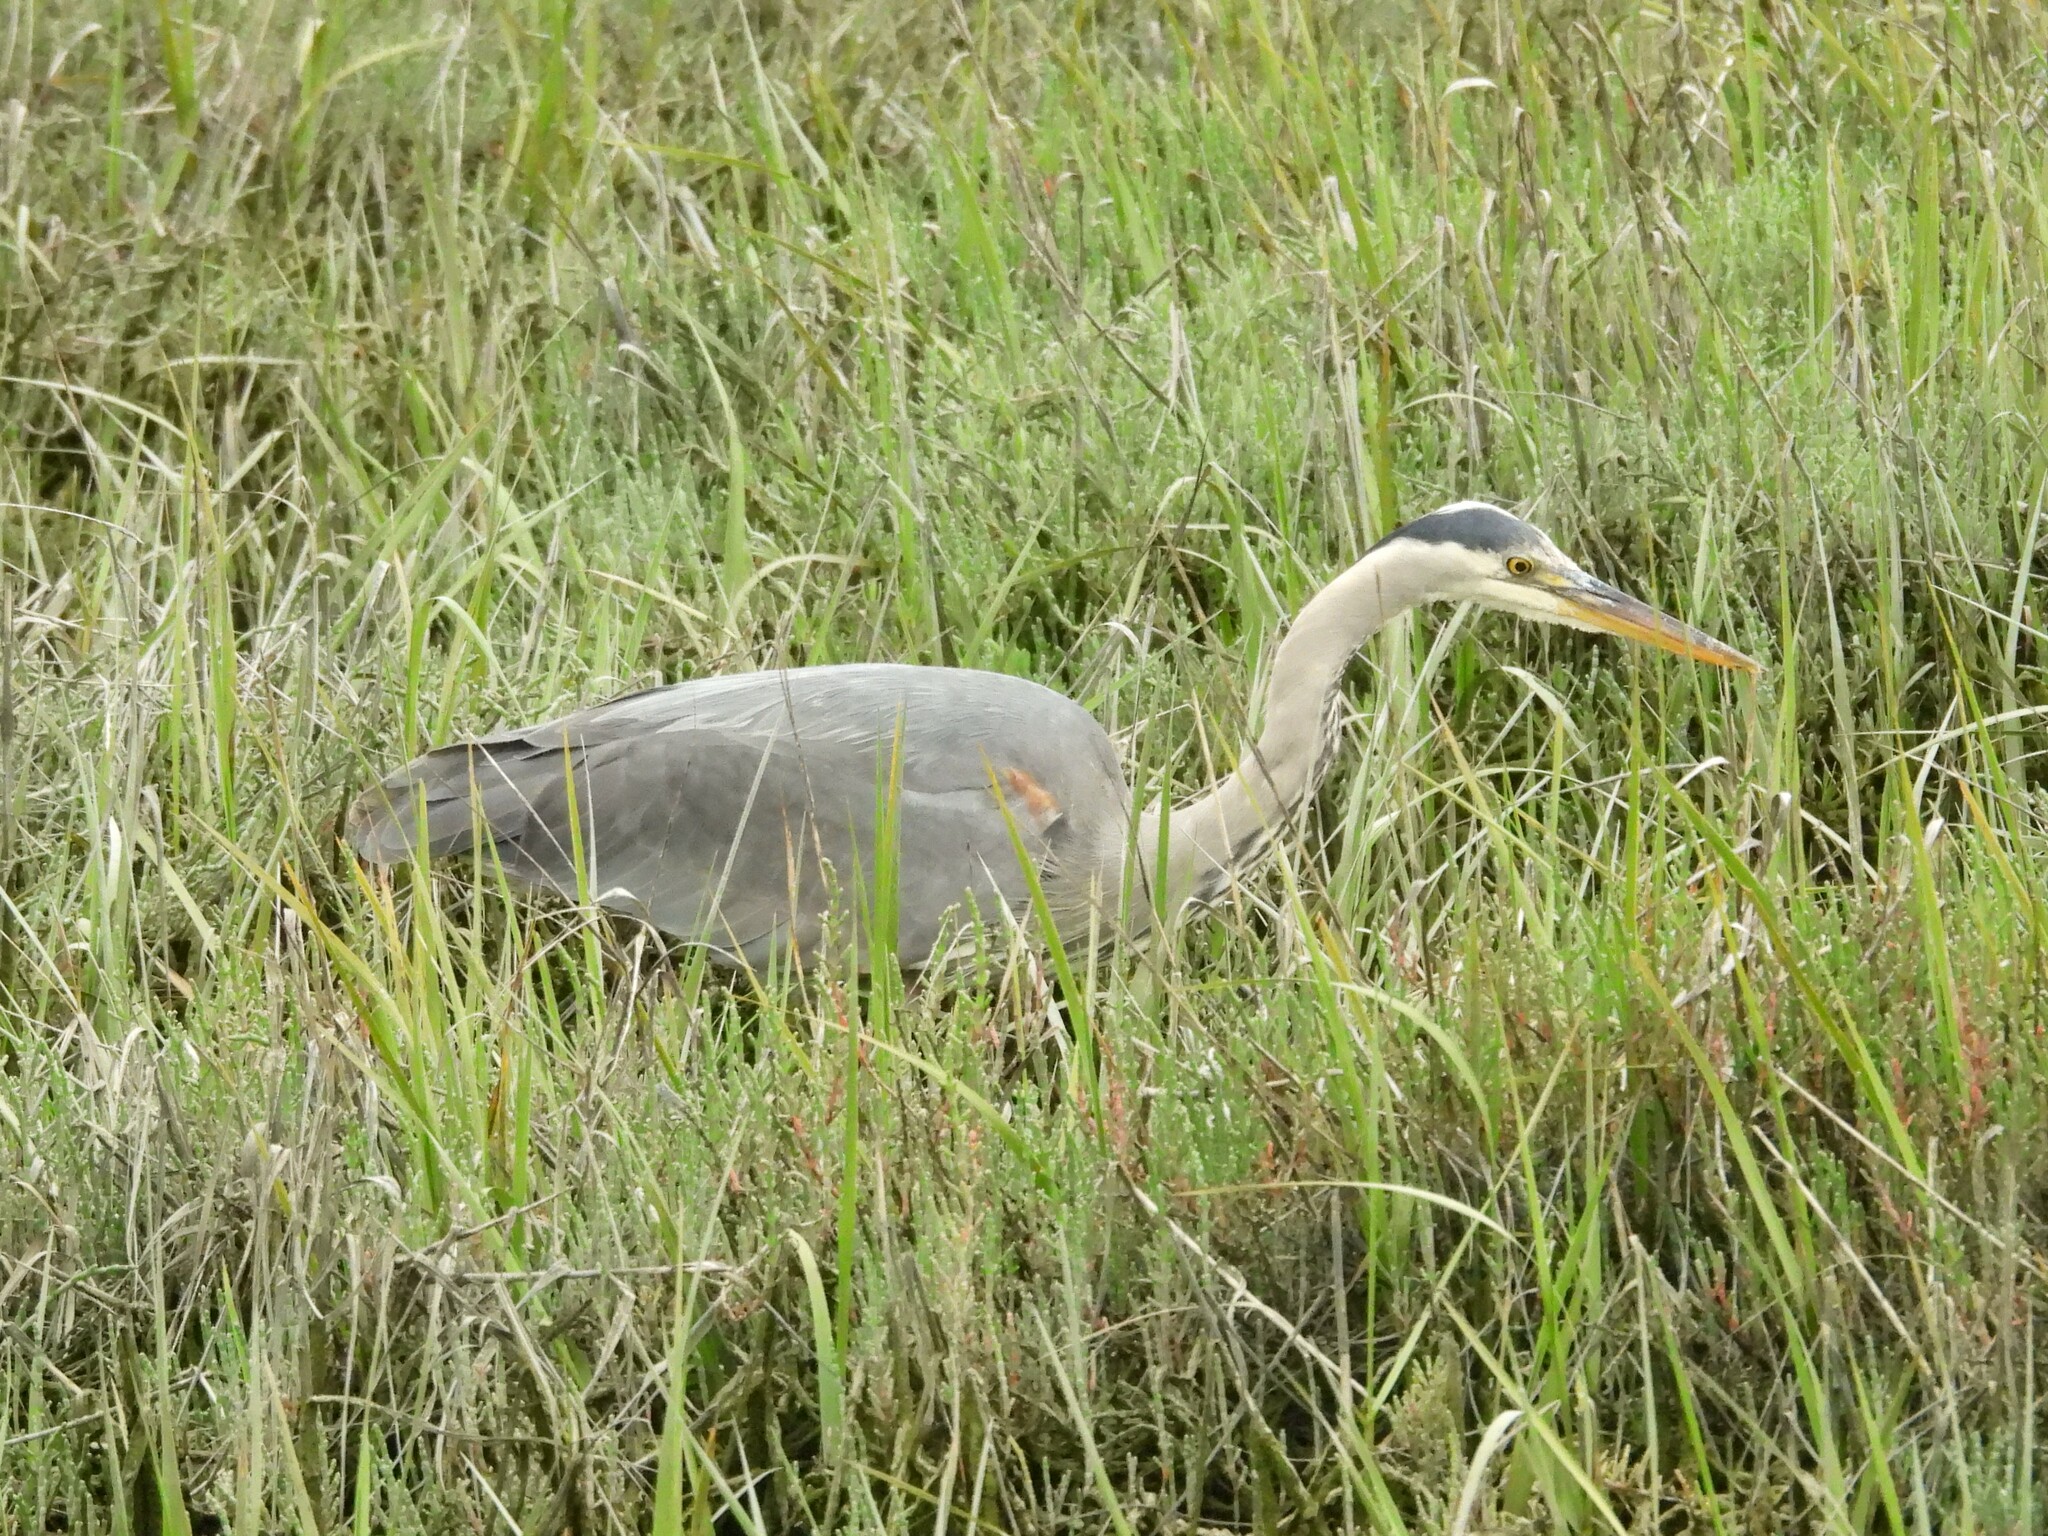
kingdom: Animalia
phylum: Chordata
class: Aves
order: Pelecaniformes
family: Ardeidae
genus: Ardea
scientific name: Ardea herodias
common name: Great blue heron
